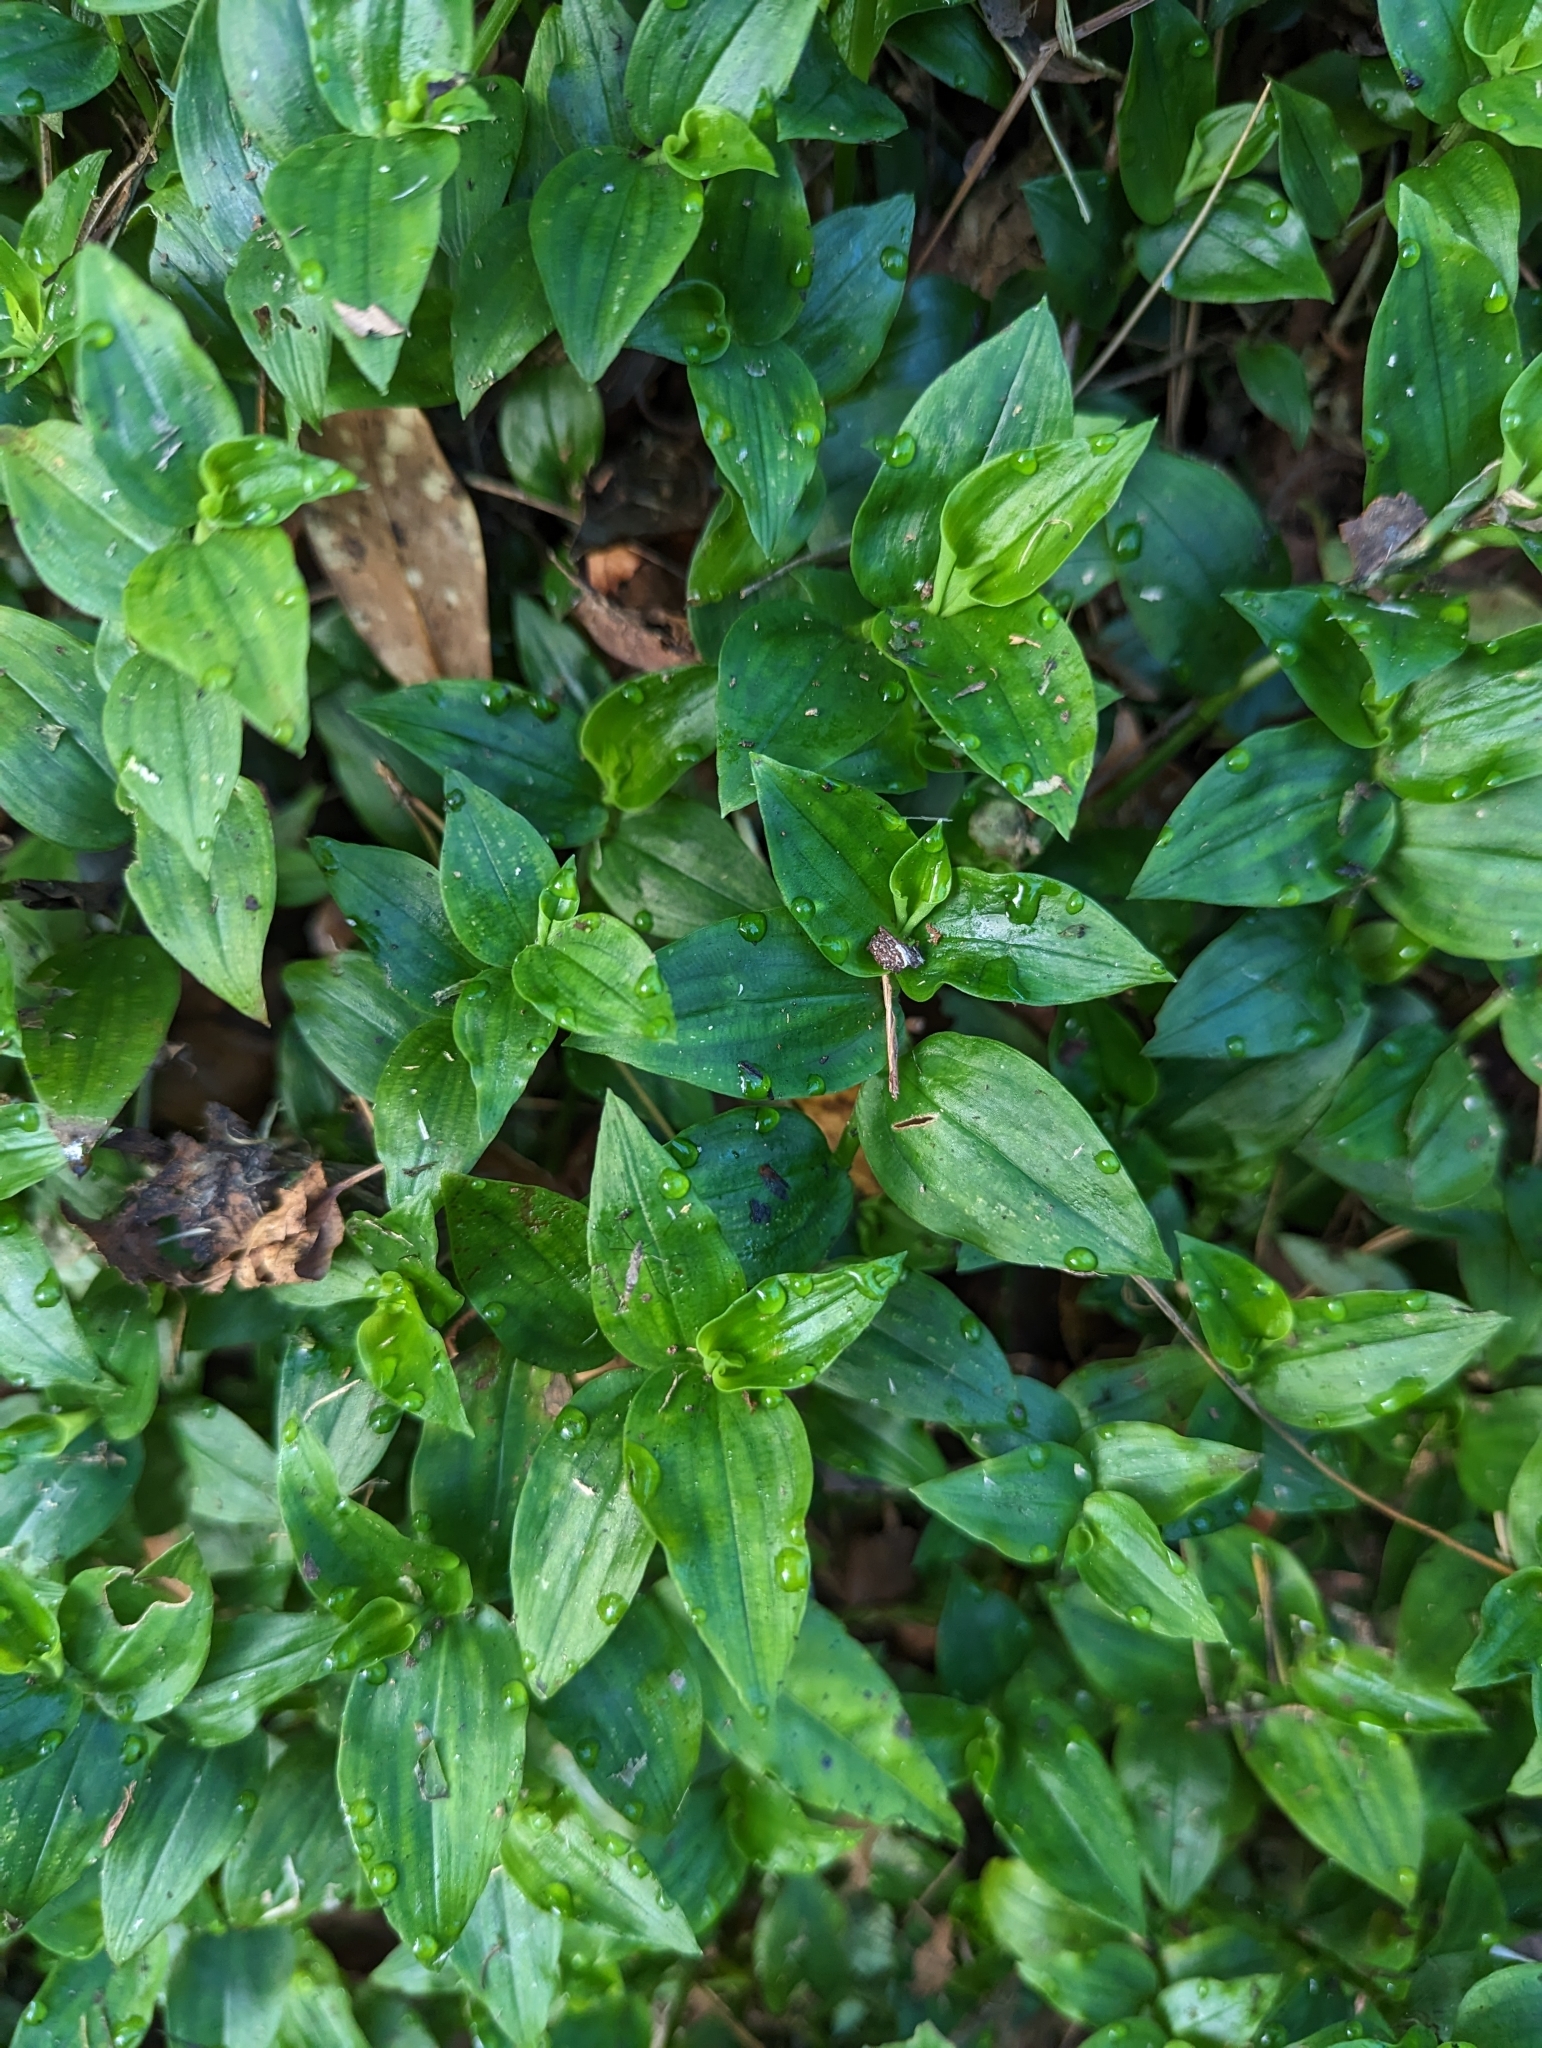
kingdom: Plantae
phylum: Tracheophyta
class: Liliopsida
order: Commelinales
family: Commelinaceae
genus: Tradescantia
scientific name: Tradescantia fluminensis
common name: Wandering-jew
